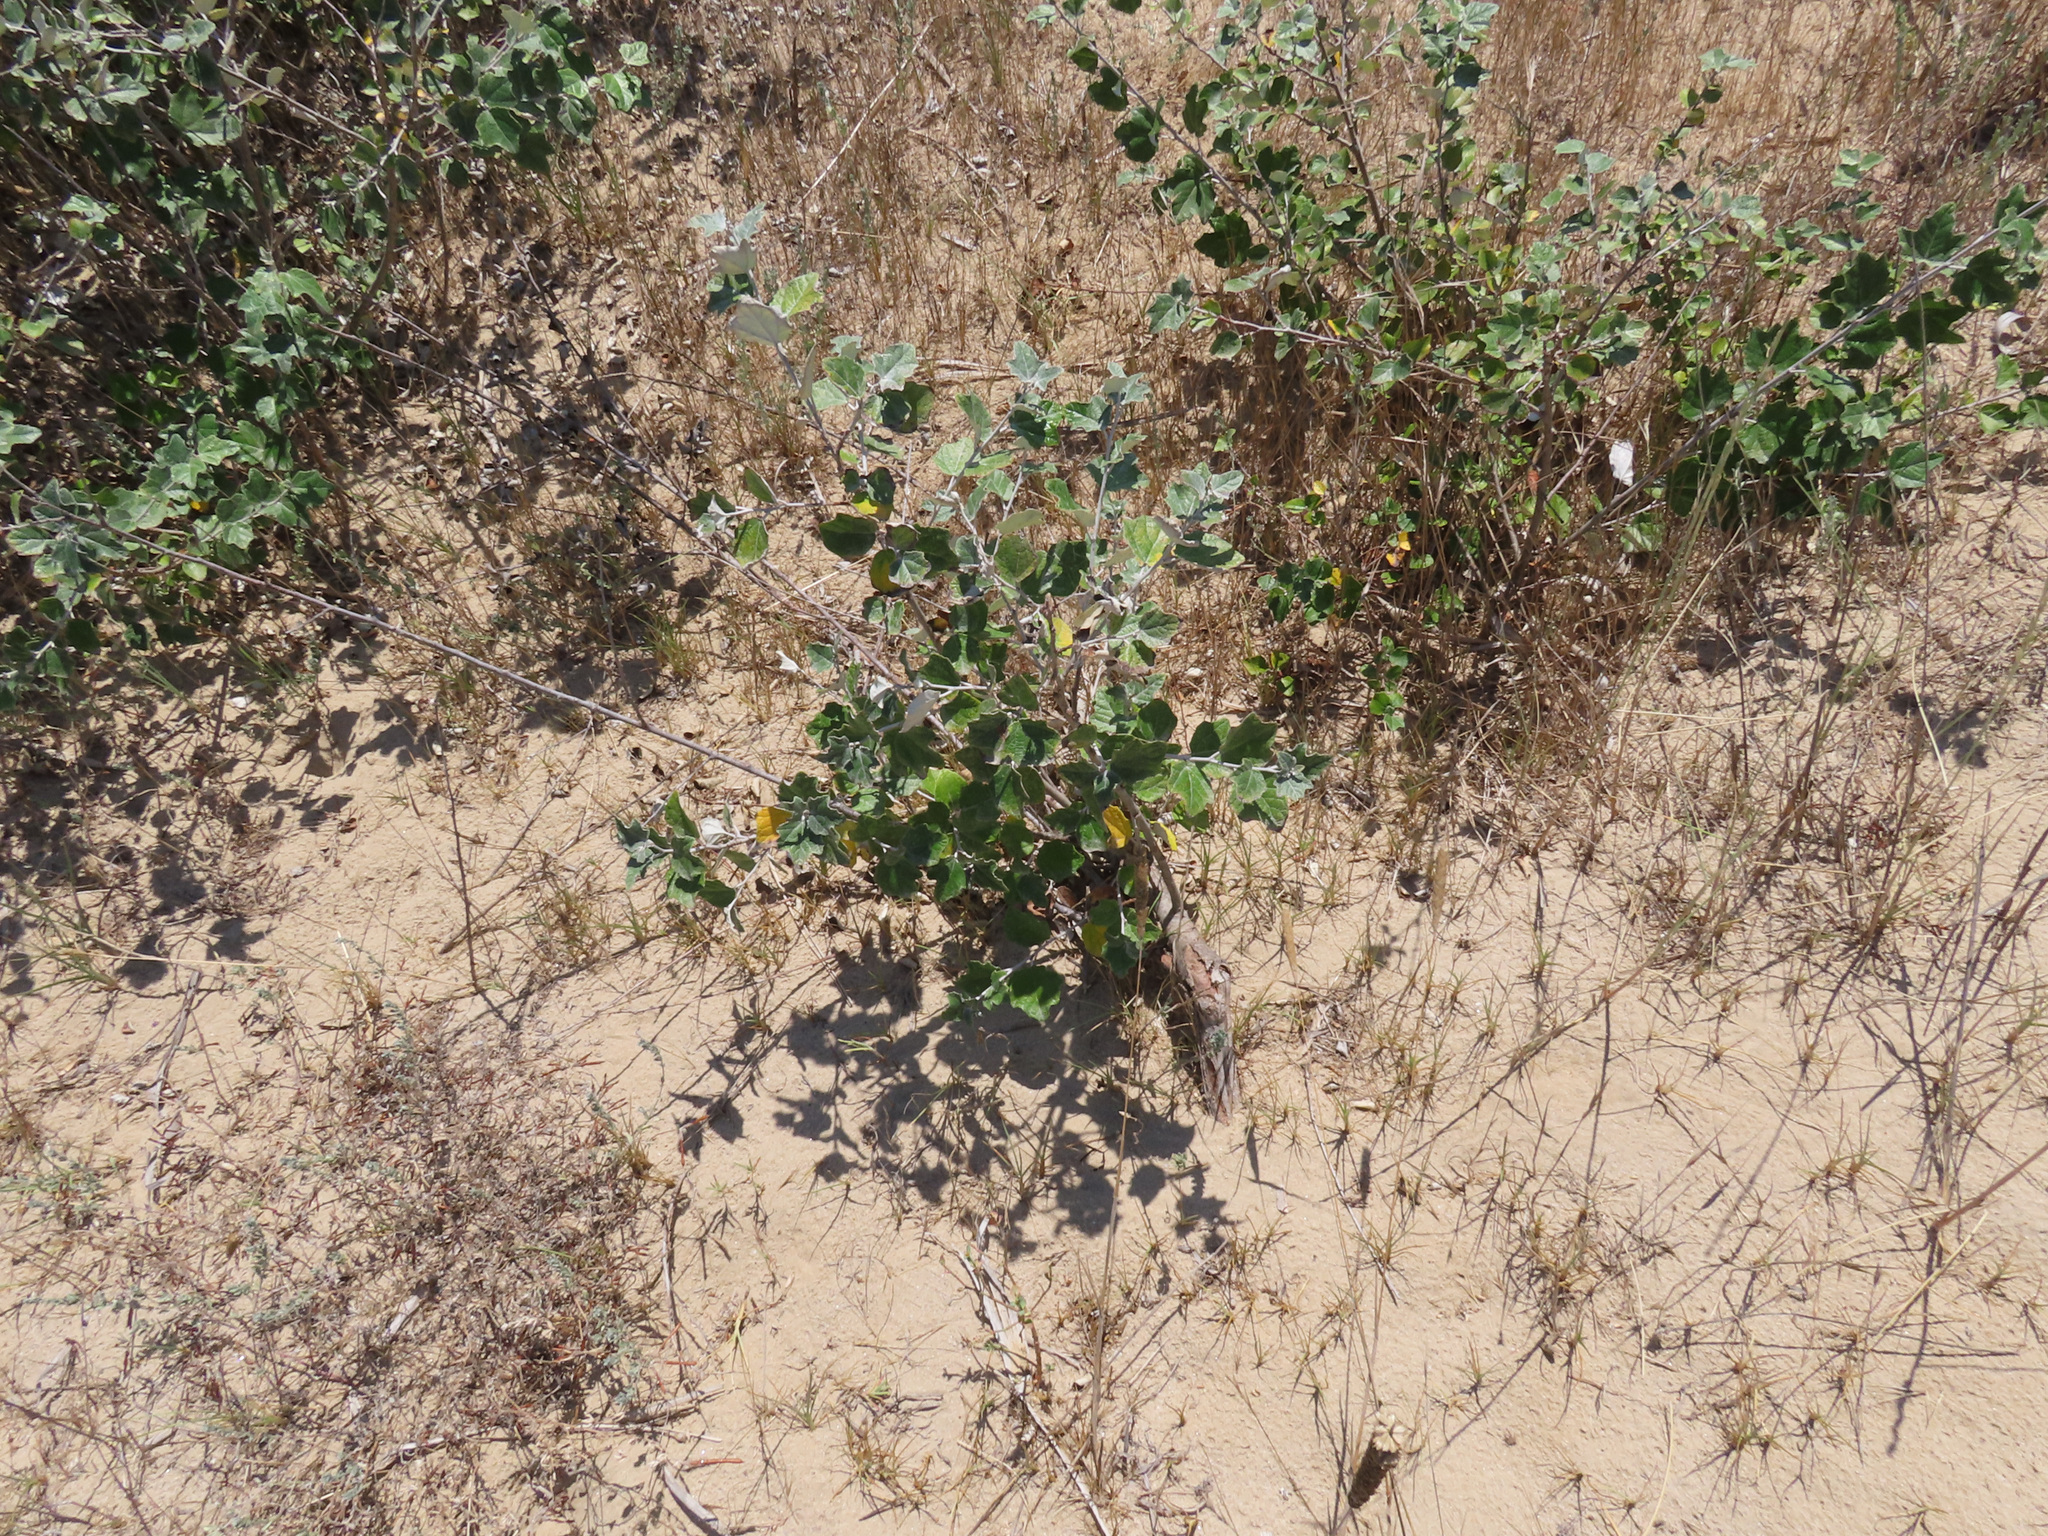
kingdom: Plantae
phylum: Tracheophyta
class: Magnoliopsida
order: Malpighiales
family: Salicaceae
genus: Populus
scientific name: Populus alba
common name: White poplar
